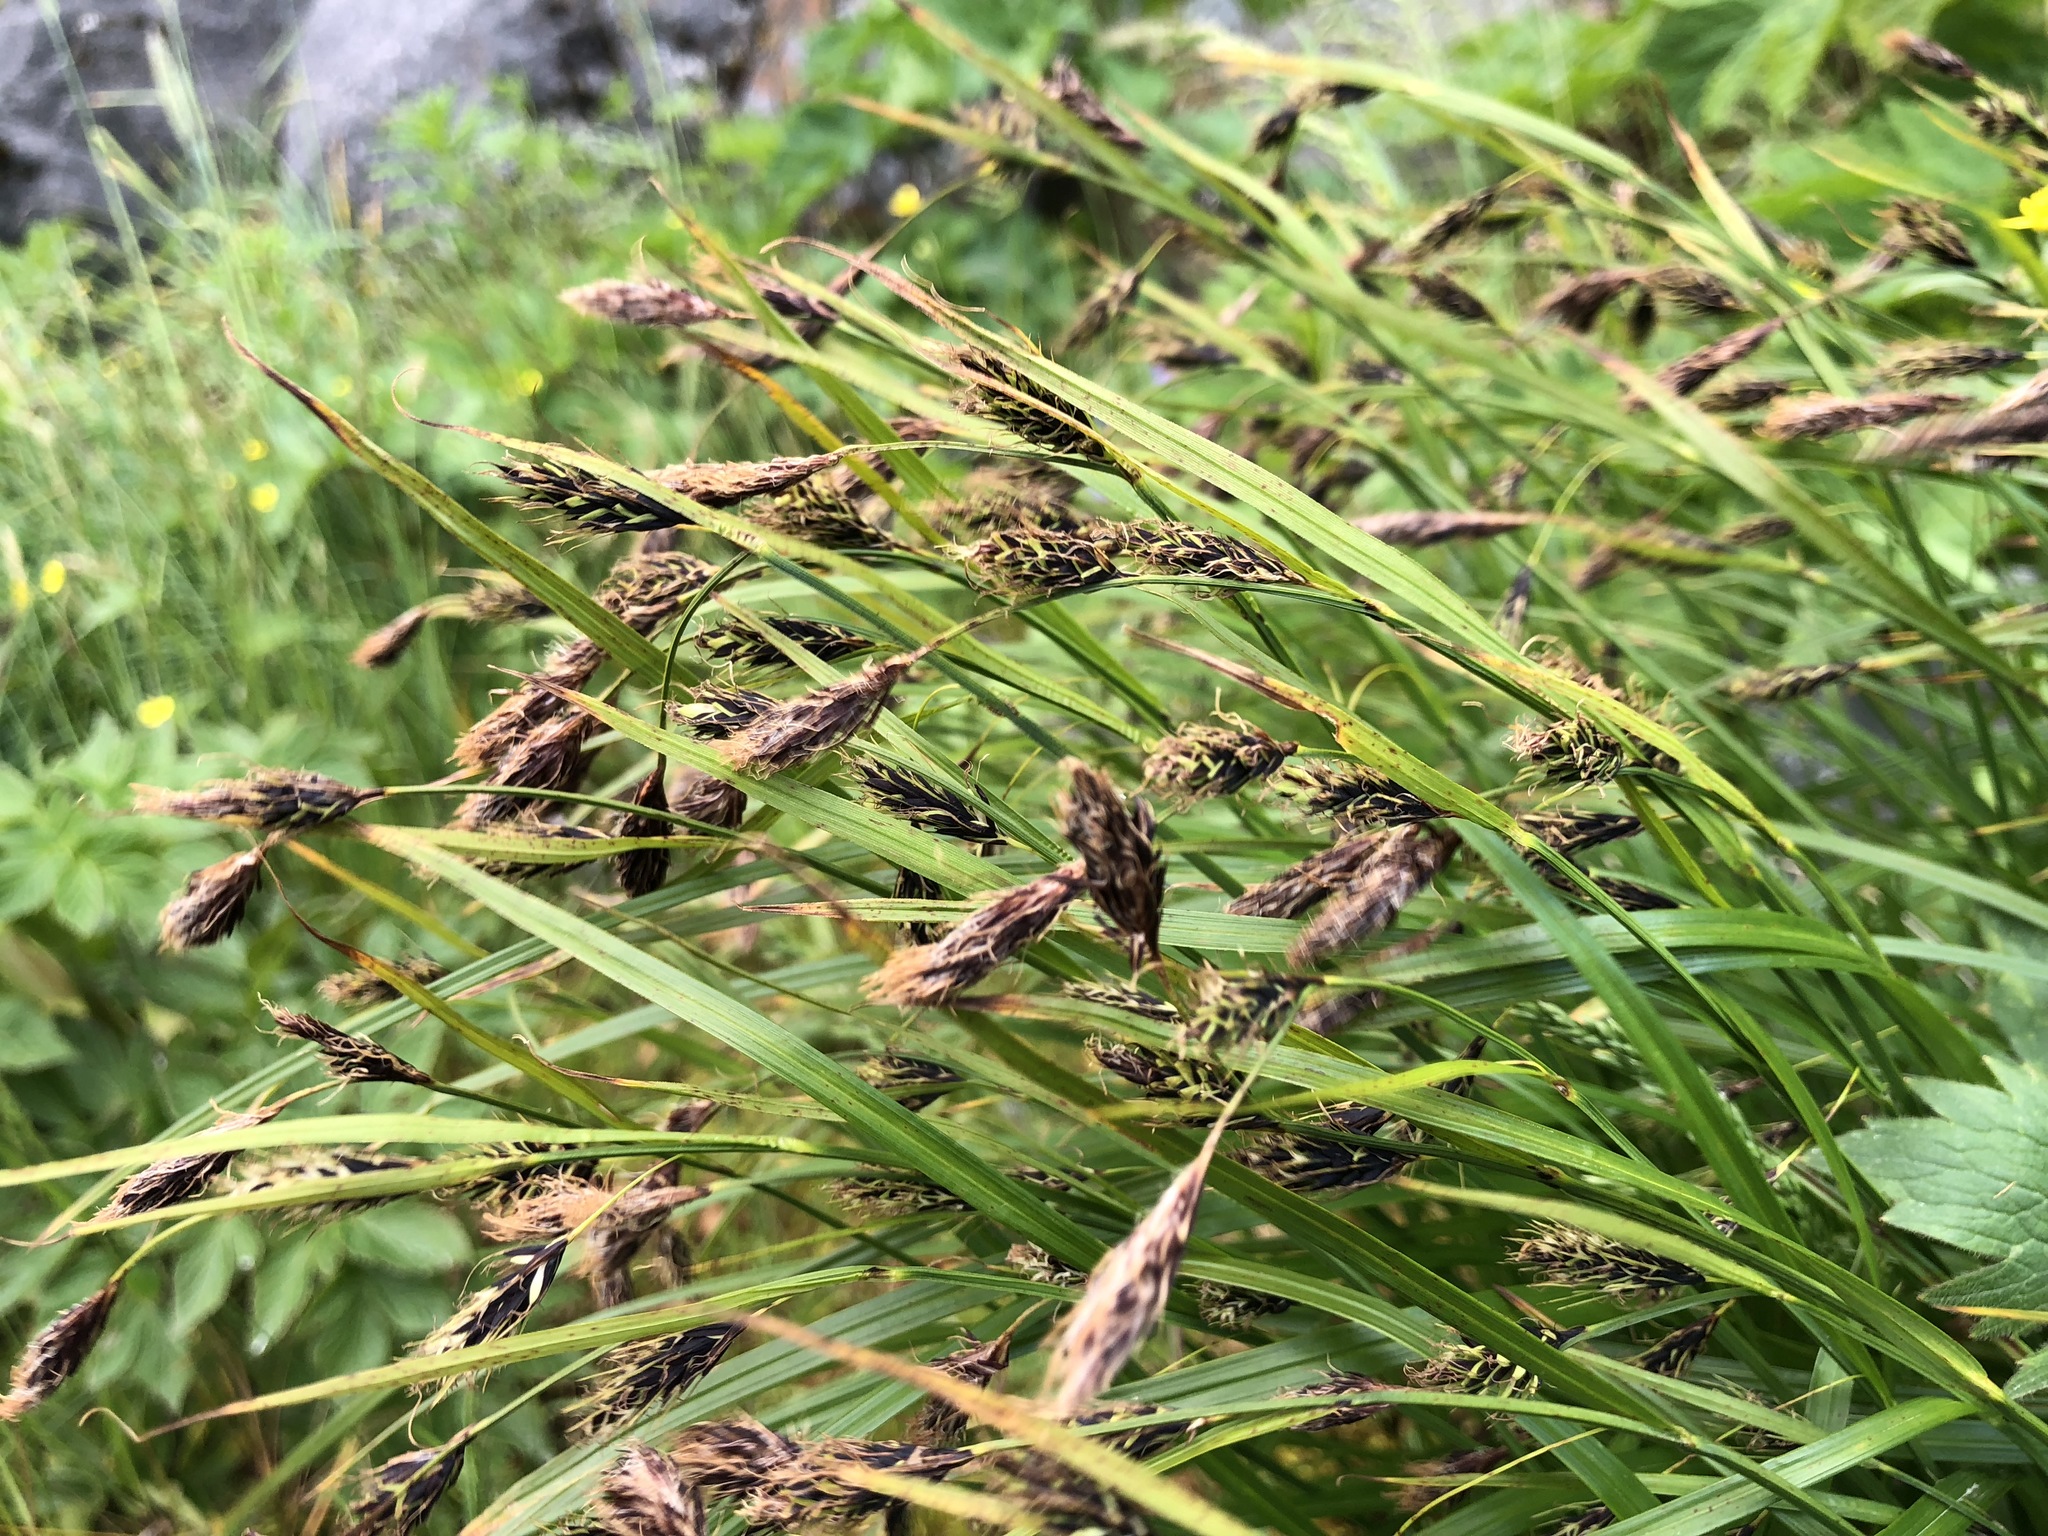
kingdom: Plantae
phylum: Tracheophyta
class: Liliopsida
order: Poales
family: Cyperaceae
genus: Carex
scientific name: Carex macrochaeta
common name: Alaska large awn sedge
